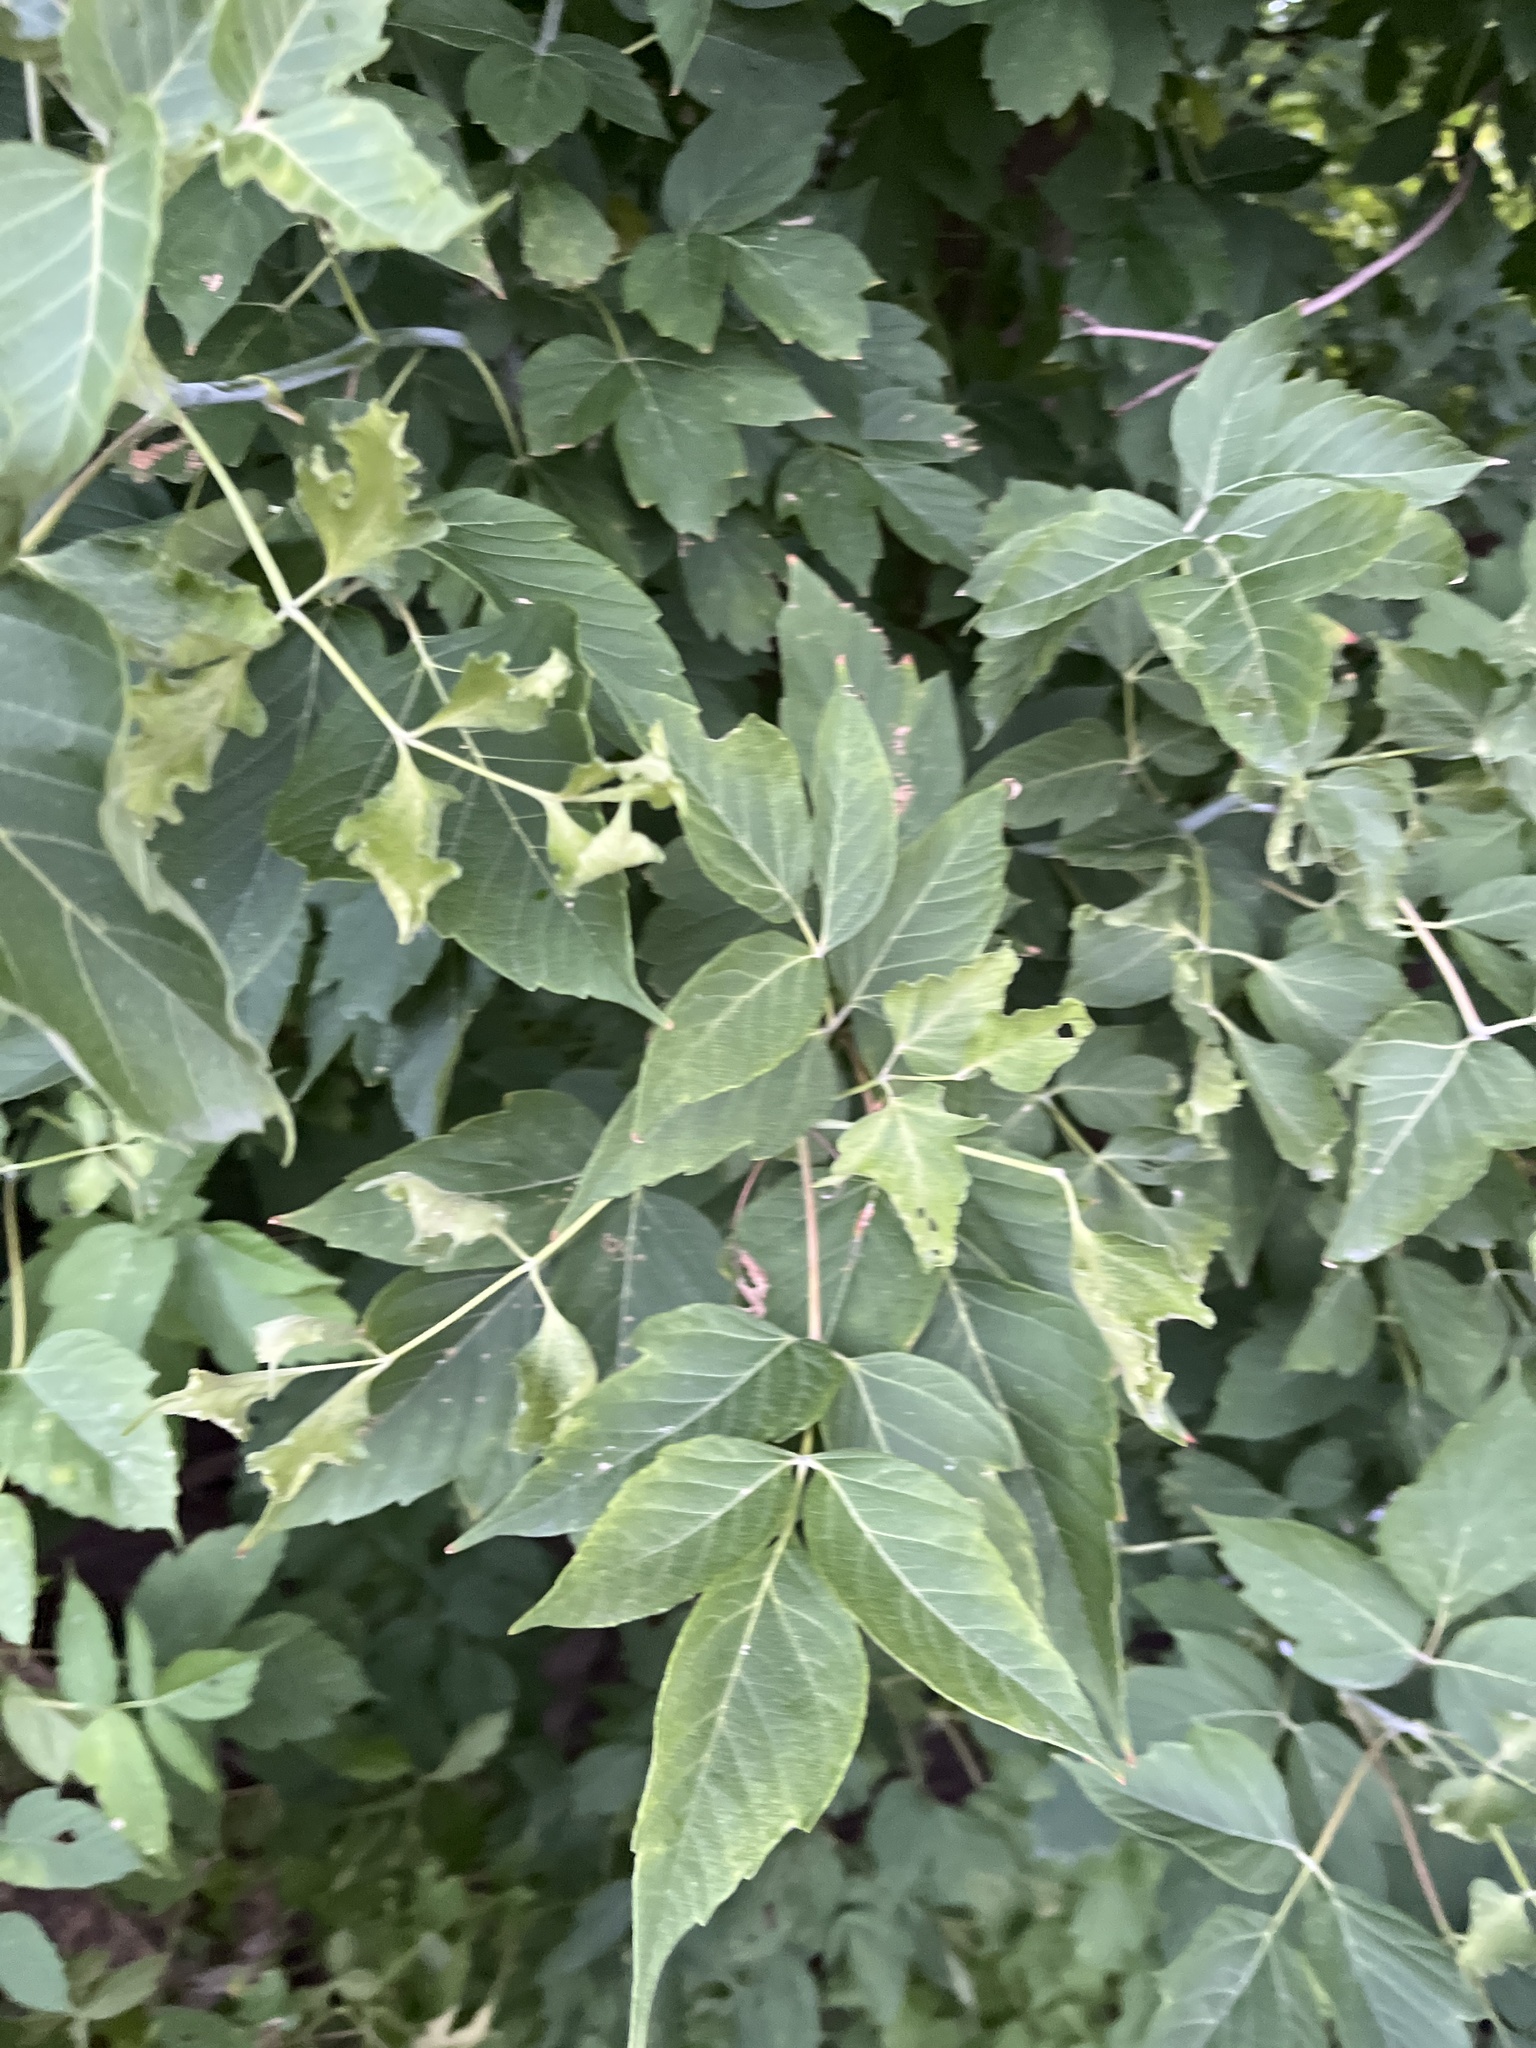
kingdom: Plantae
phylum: Tracheophyta
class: Magnoliopsida
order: Sapindales
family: Sapindaceae
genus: Acer
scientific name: Acer negundo
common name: Ashleaf maple
